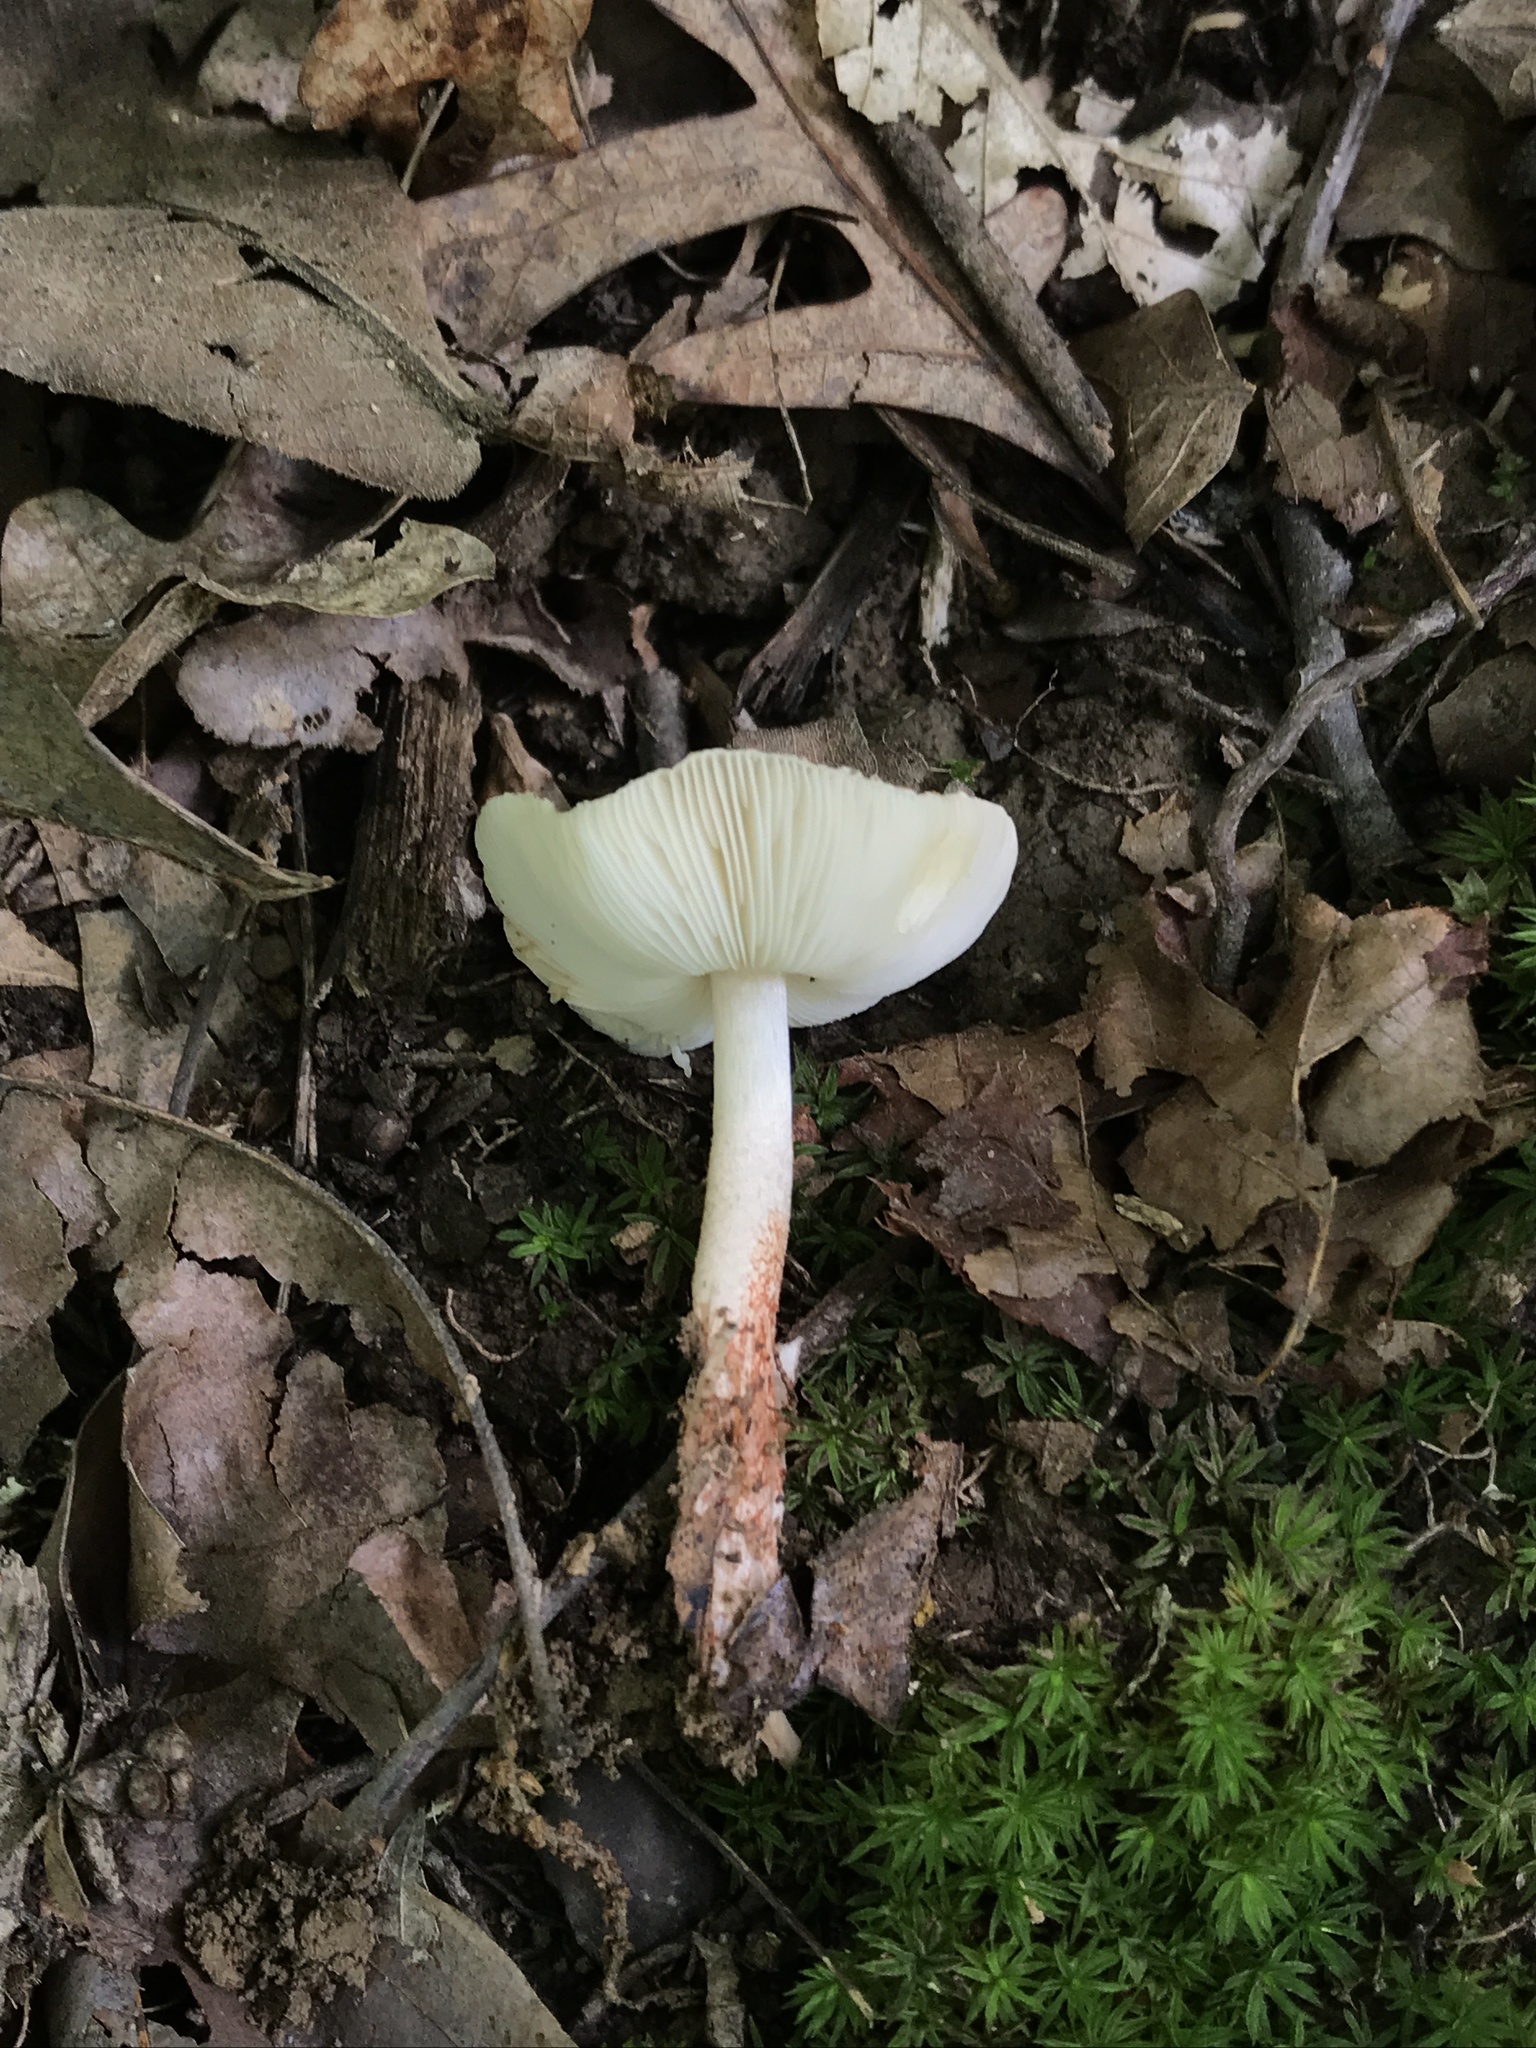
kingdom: Fungi
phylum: Basidiomycota
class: Agaricomycetes
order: Agaricales
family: Agaricaceae
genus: Lepiota
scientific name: Lepiota flammeotincta
